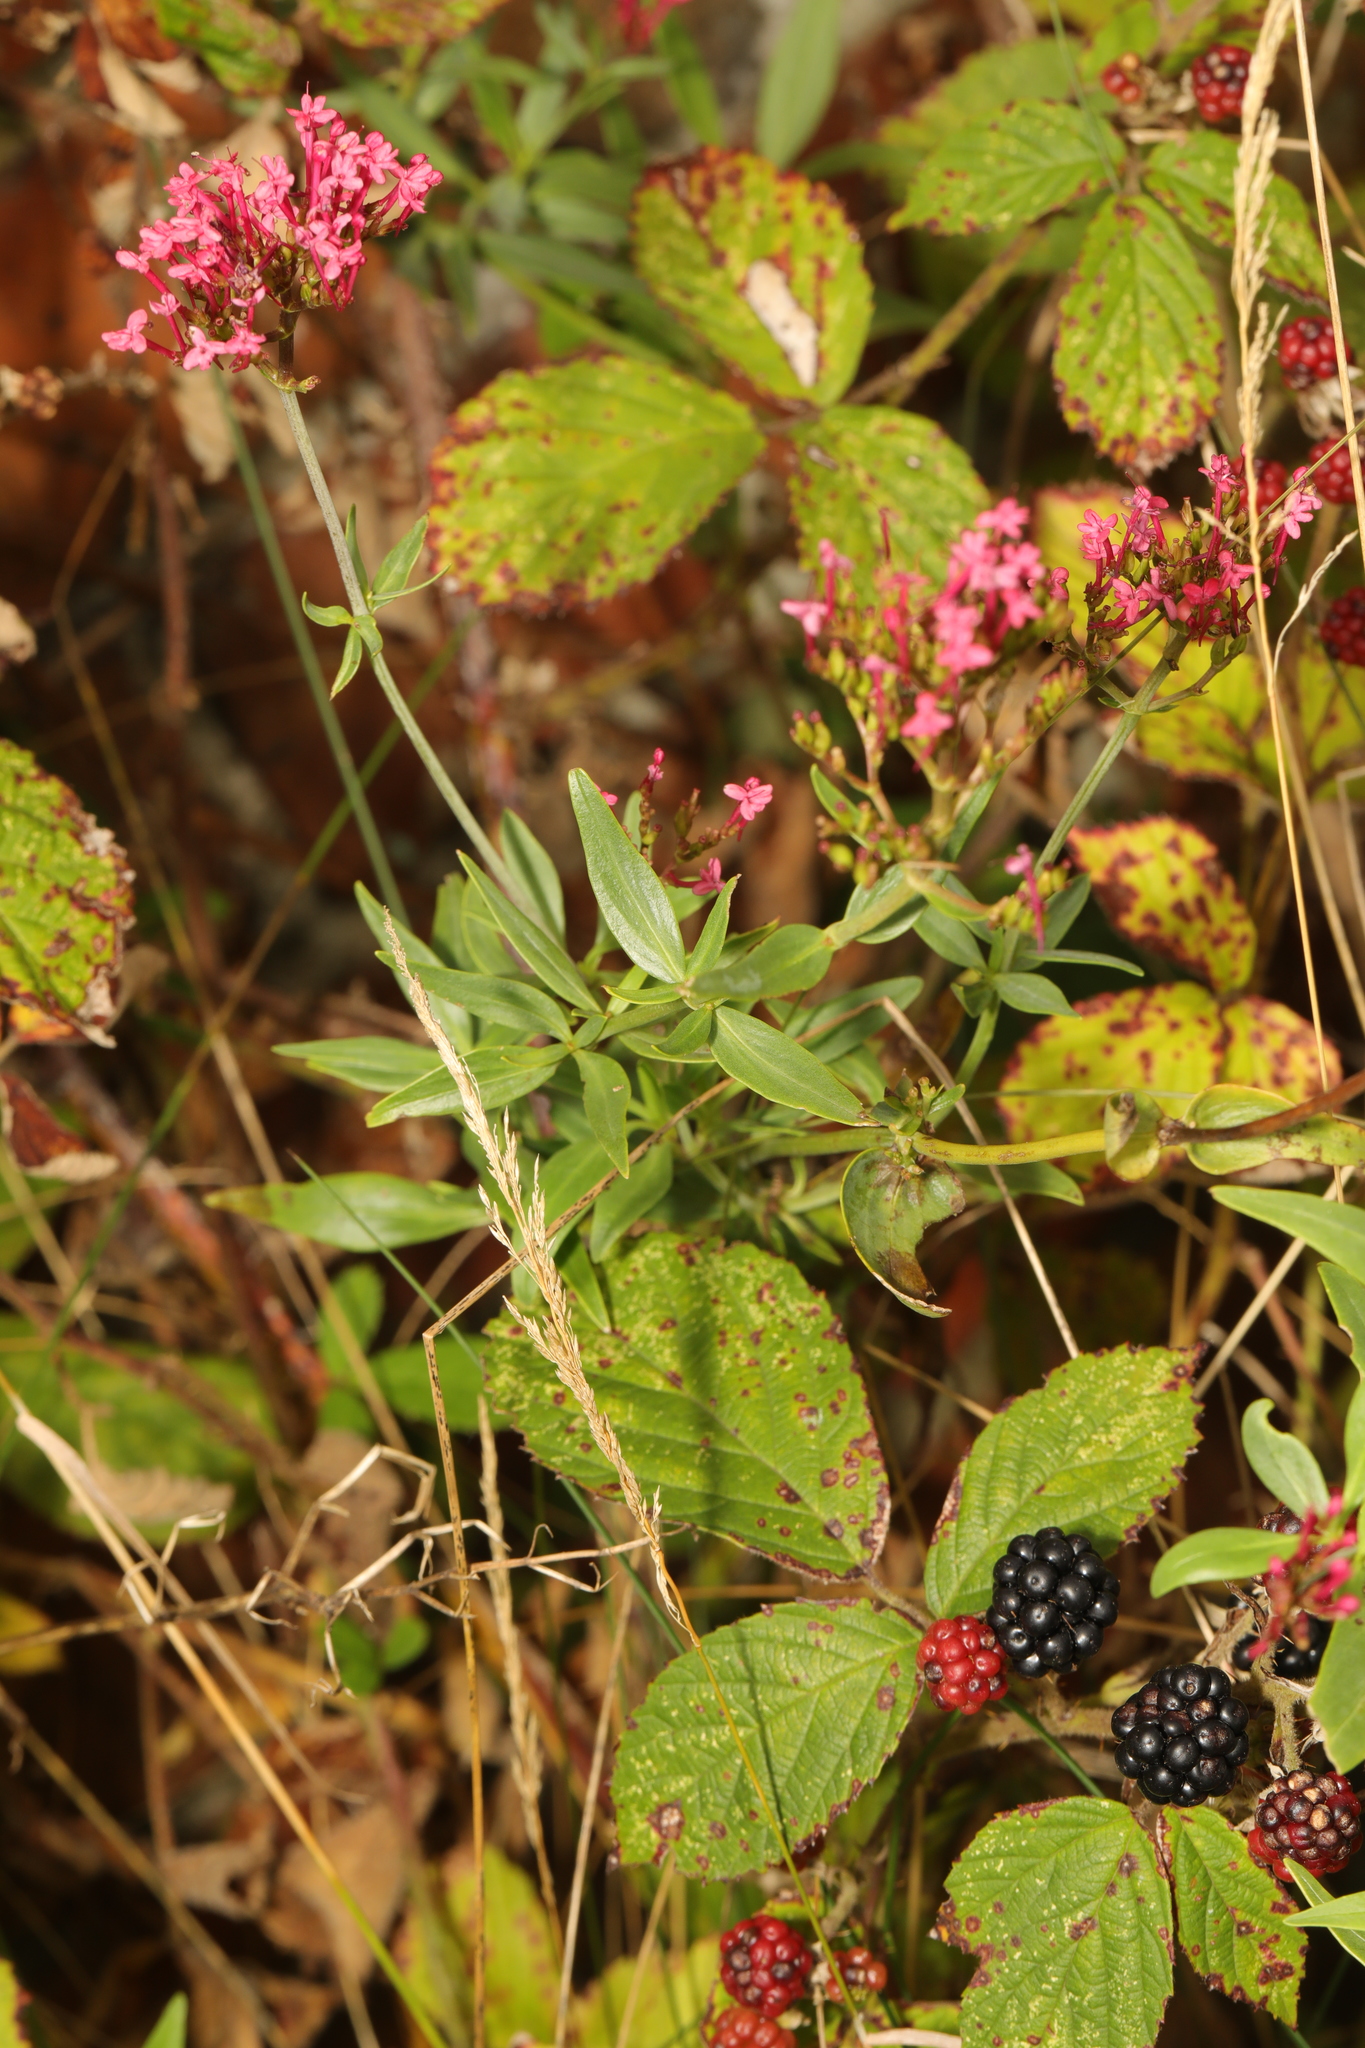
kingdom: Plantae
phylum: Tracheophyta
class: Magnoliopsida
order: Dipsacales
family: Caprifoliaceae
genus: Centranthus
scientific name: Centranthus ruber
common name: Red valerian
